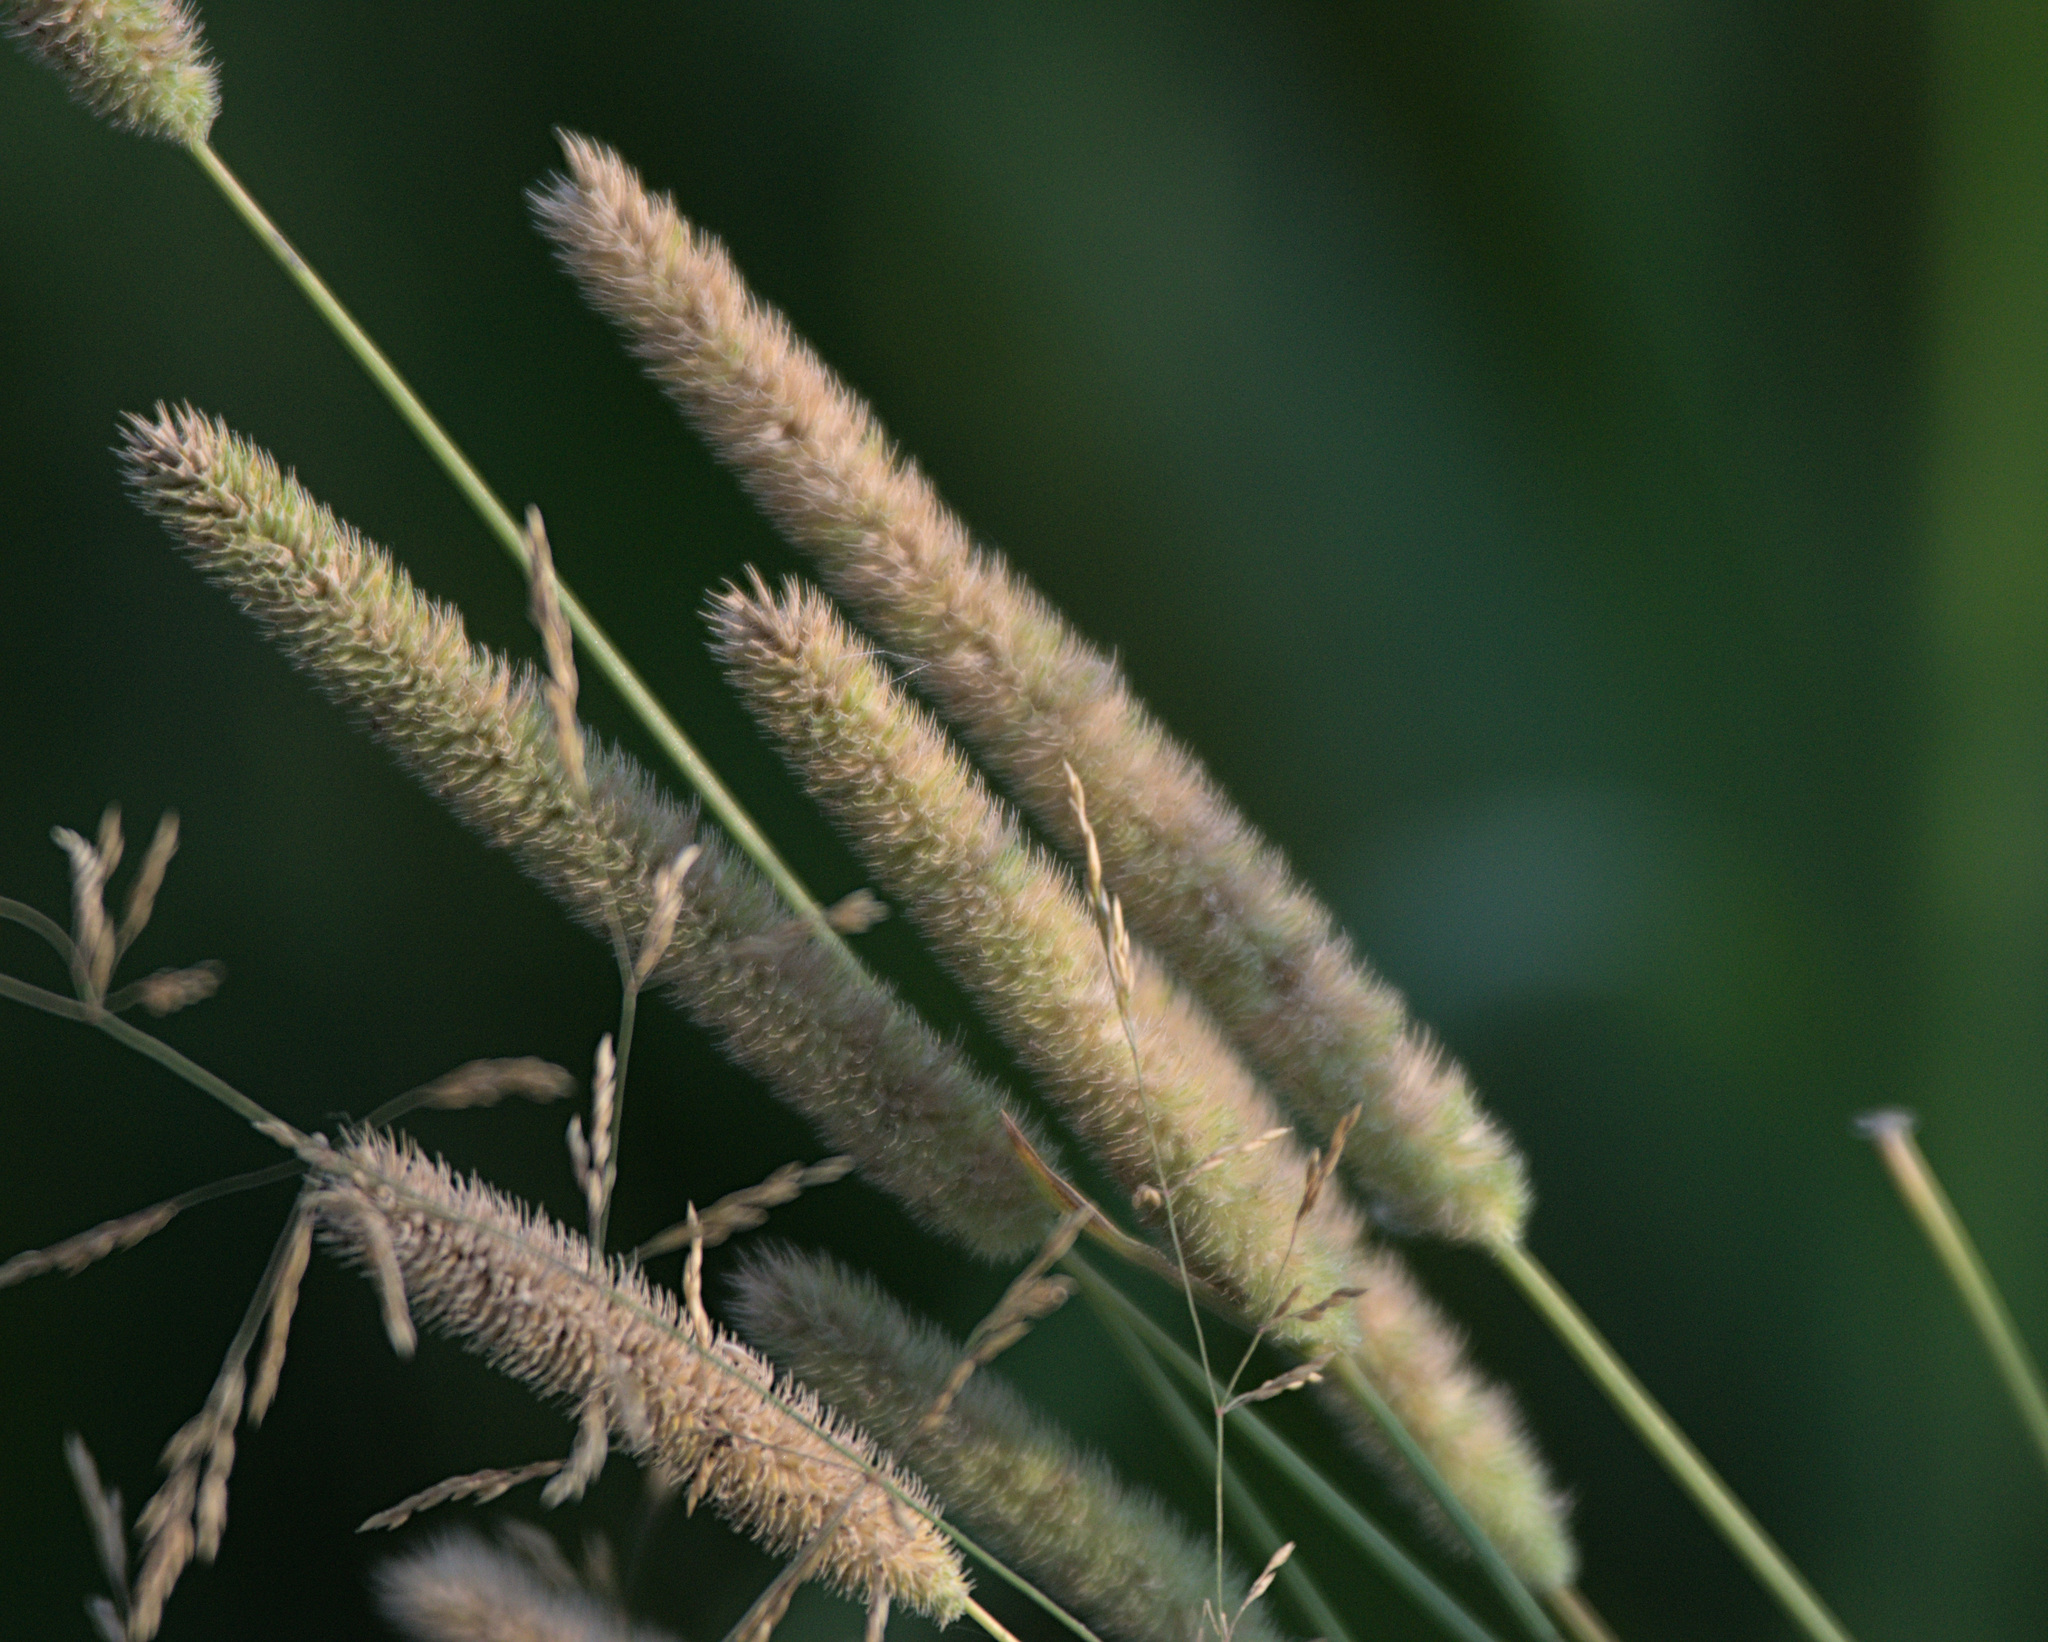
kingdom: Plantae
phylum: Tracheophyta
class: Liliopsida
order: Poales
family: Poaceae
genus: Phleum
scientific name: Phleum pratense
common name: Timothy grass
